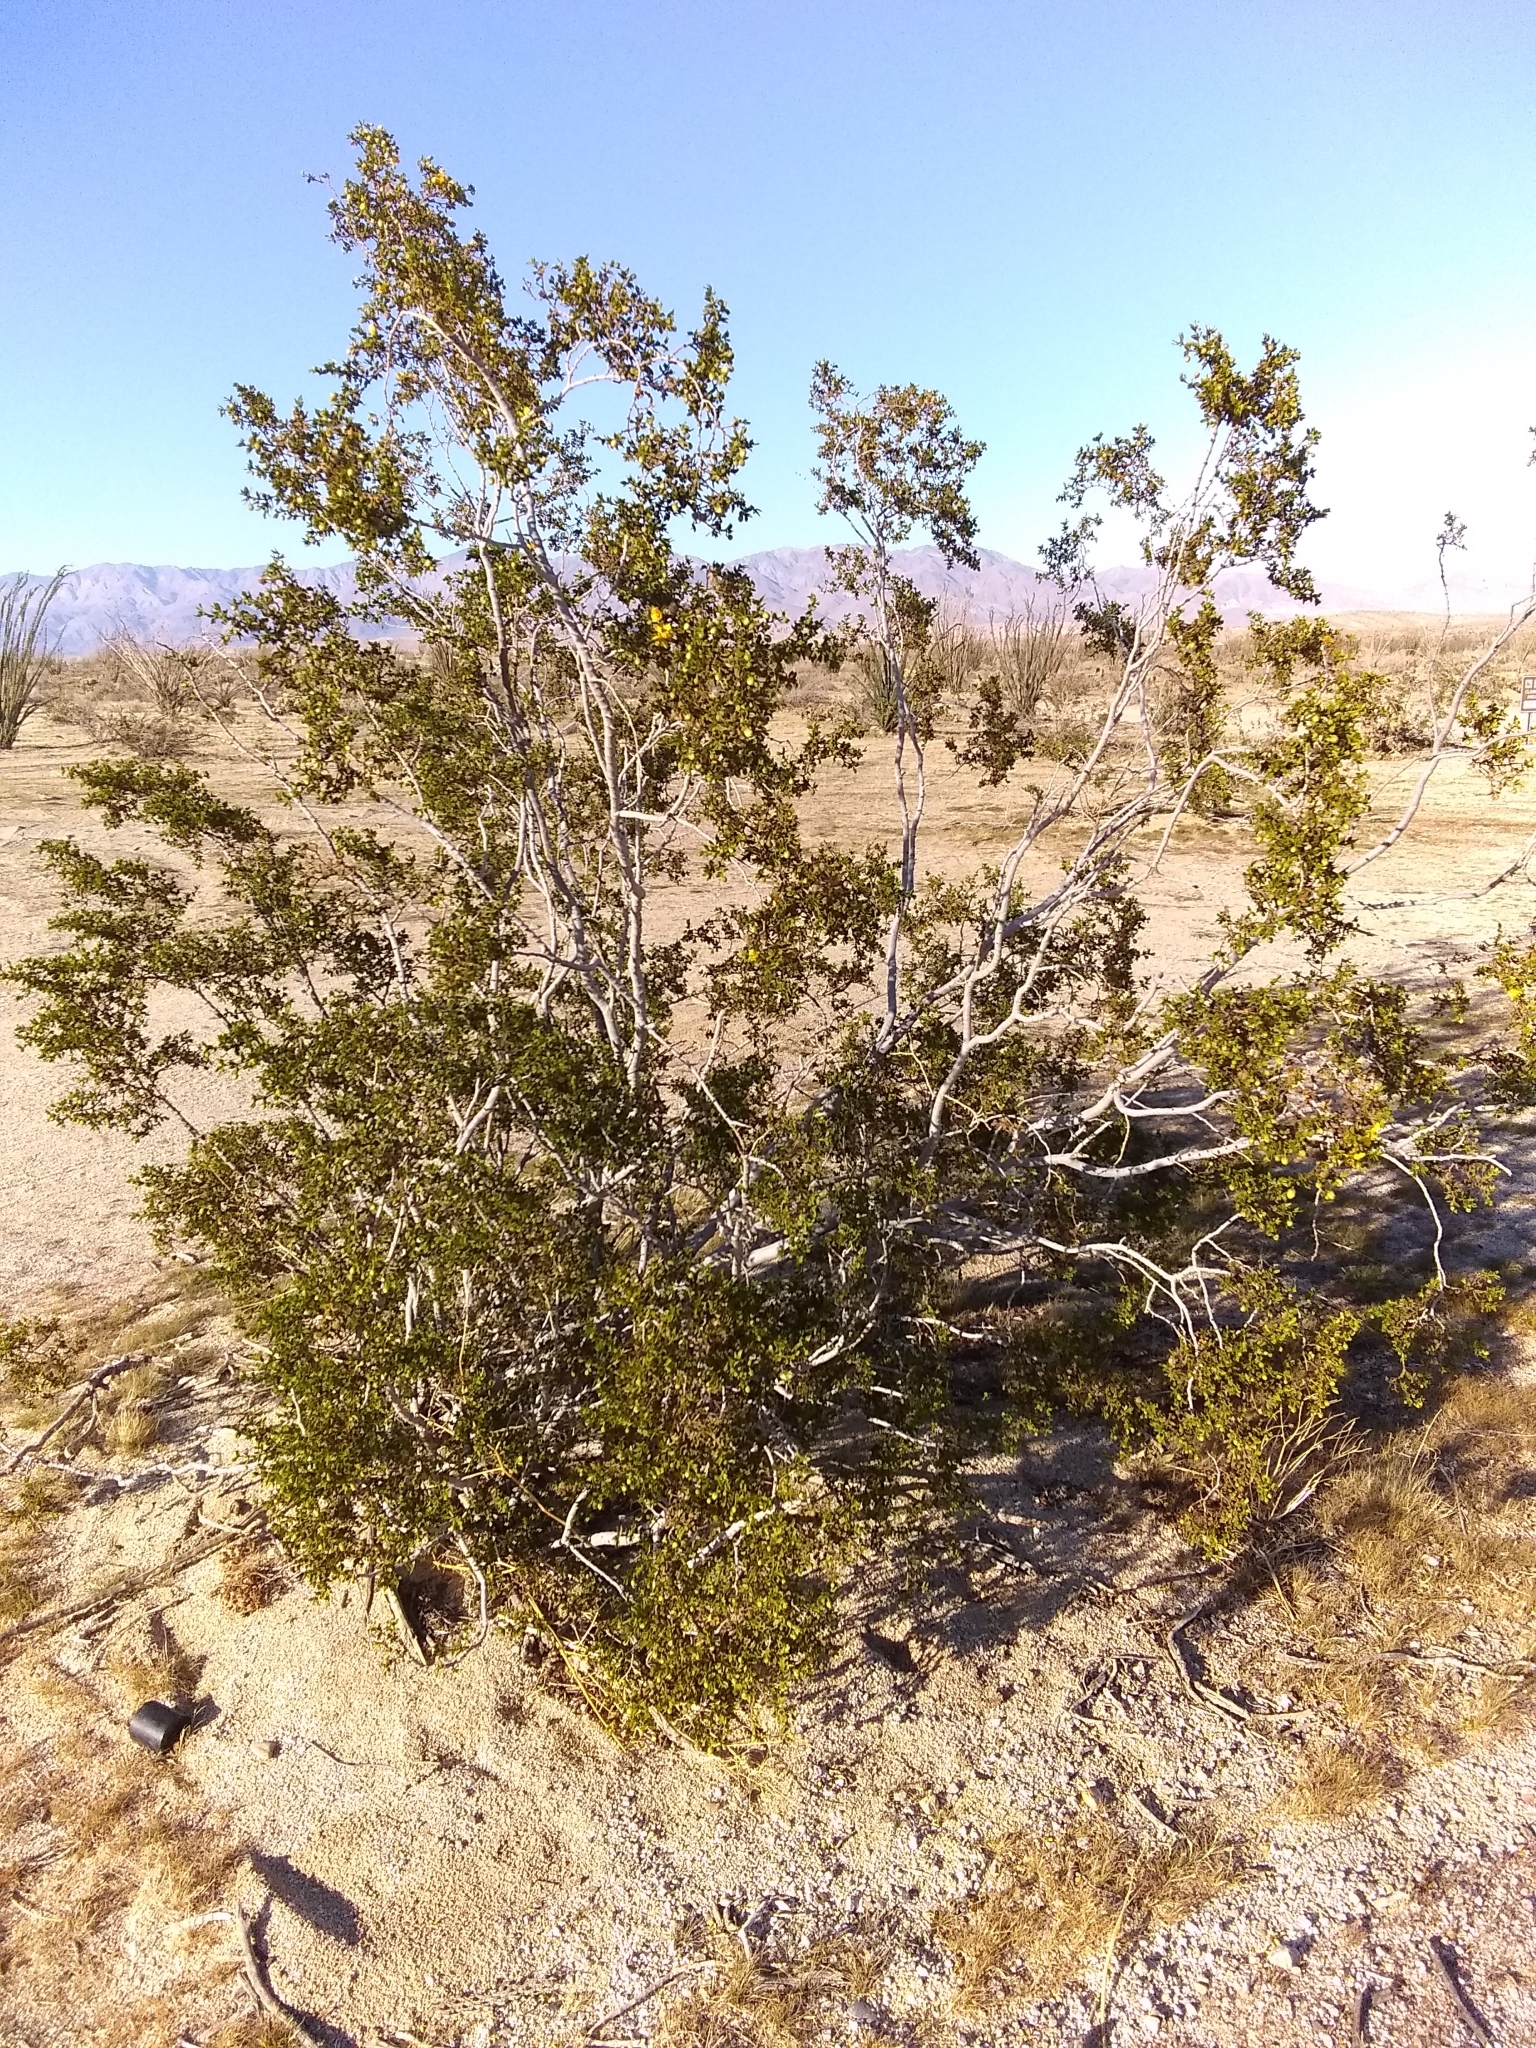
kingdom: Plantae
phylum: Tracheophyta
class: Magnoliopsida
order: Zygophyllales
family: Zygophyllaceae
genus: Larrea
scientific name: Larrea tridentata
